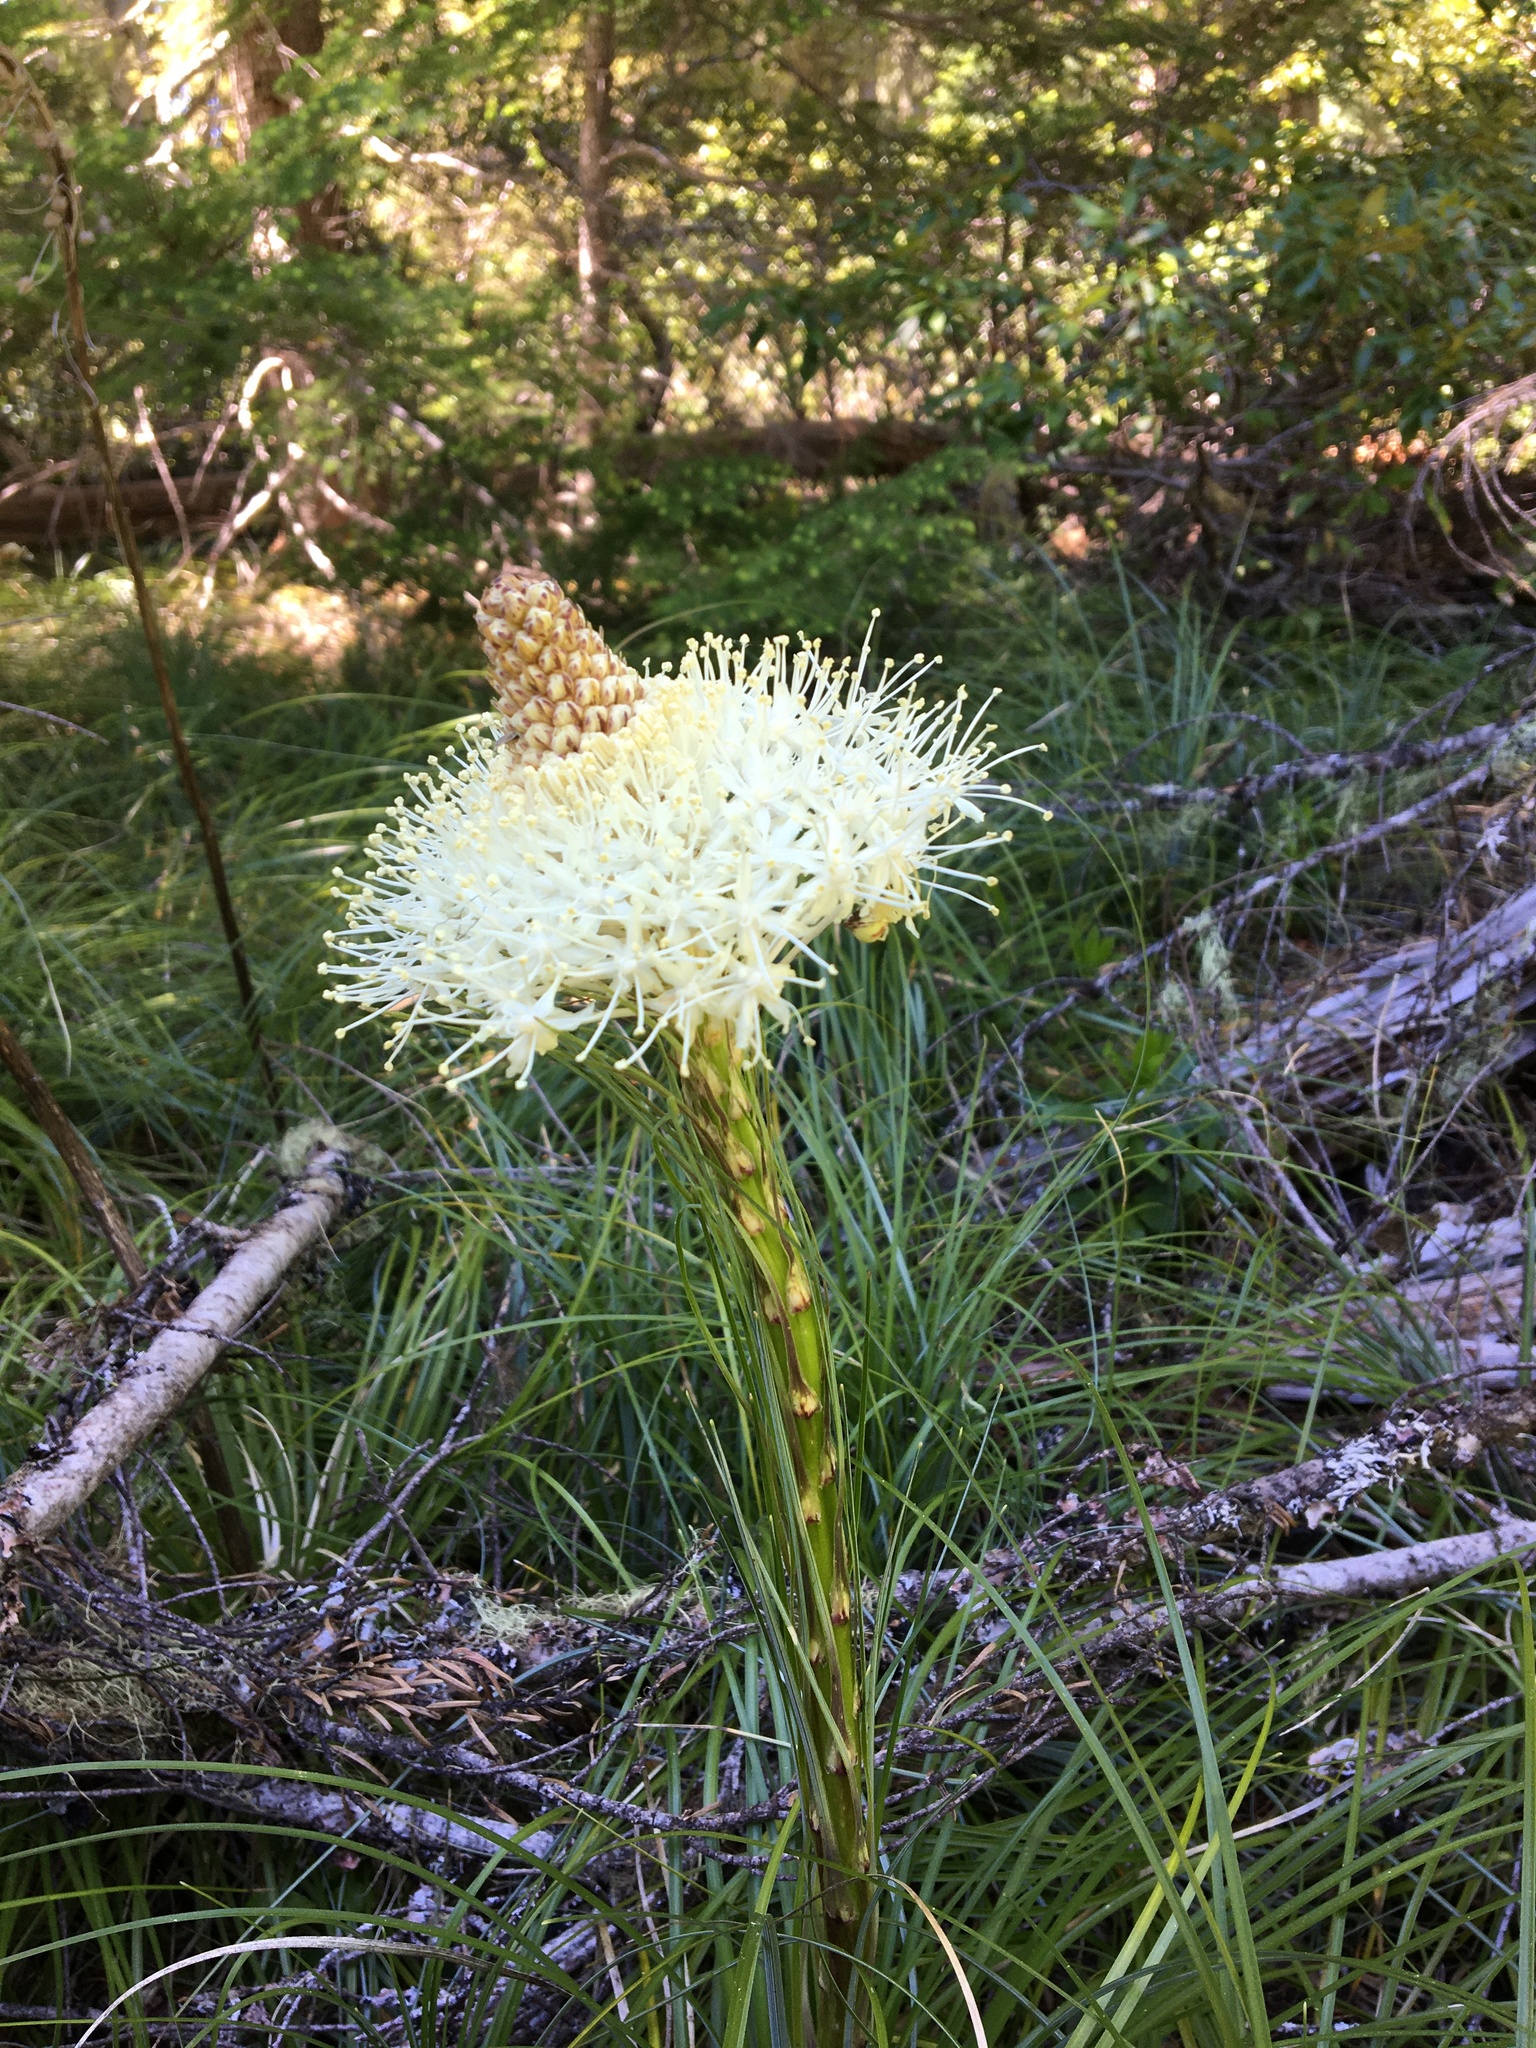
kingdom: Plantae
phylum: Tracheophyta
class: Liliopsida
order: Liliales
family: Melanthiaceae
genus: Xerophyllum
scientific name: Xerophyllum tenax
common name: Bear-grass
